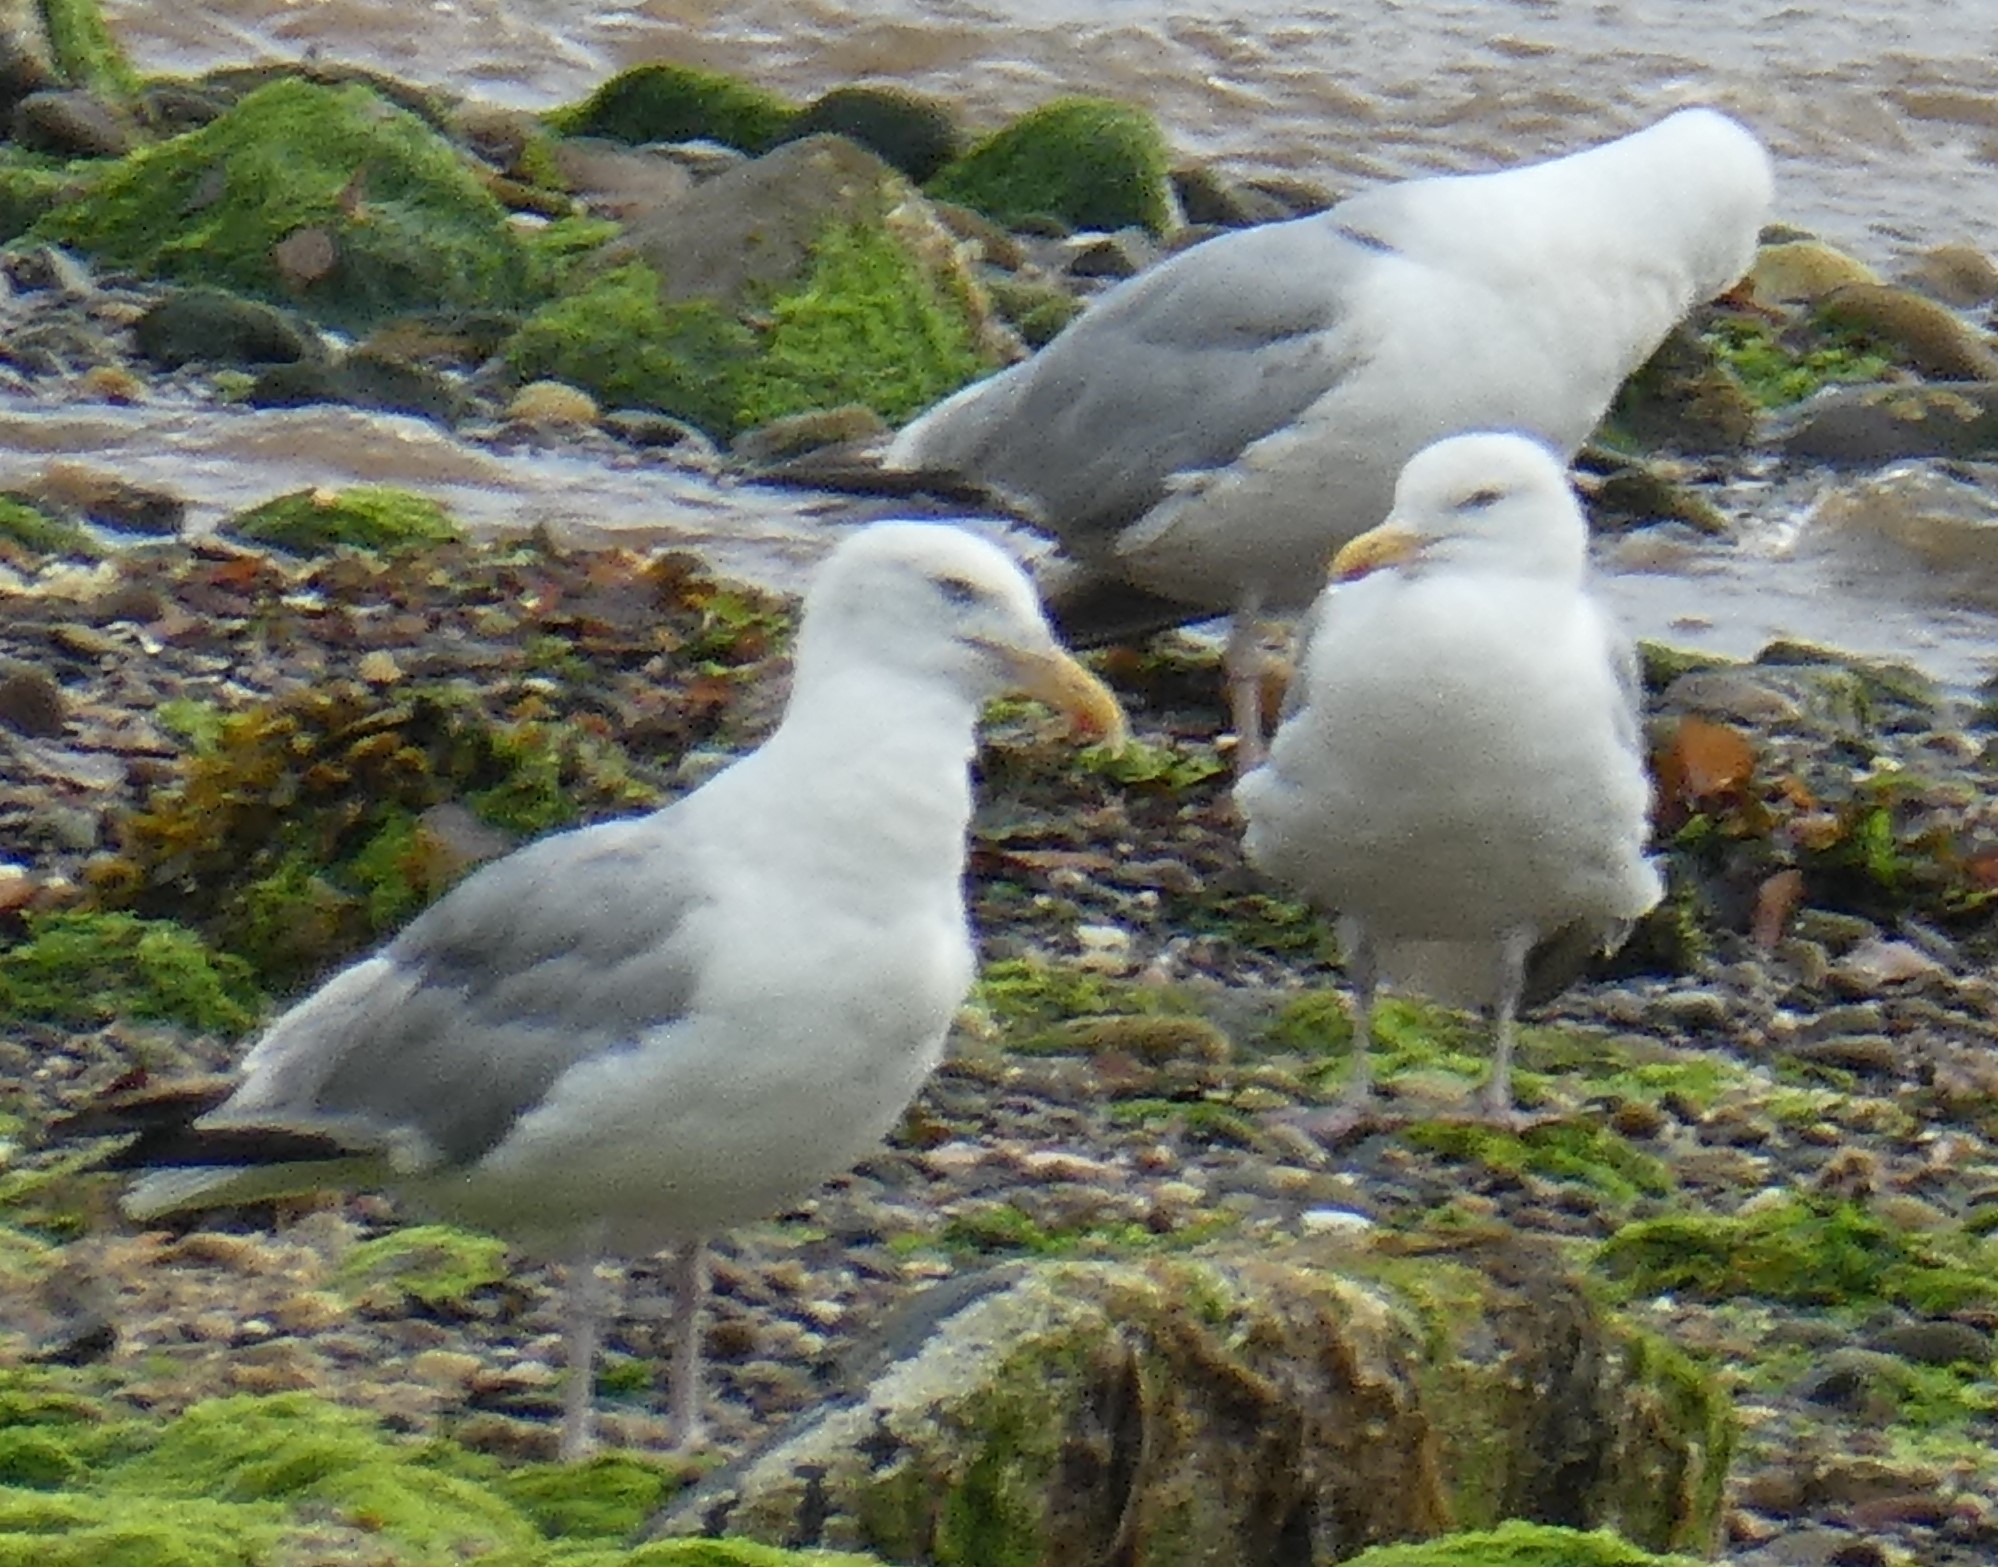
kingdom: Animalia
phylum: Chordata
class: Aves
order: Charadriiformes
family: Laridae
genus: Larus
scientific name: Larus argentatus
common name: Herring gull
